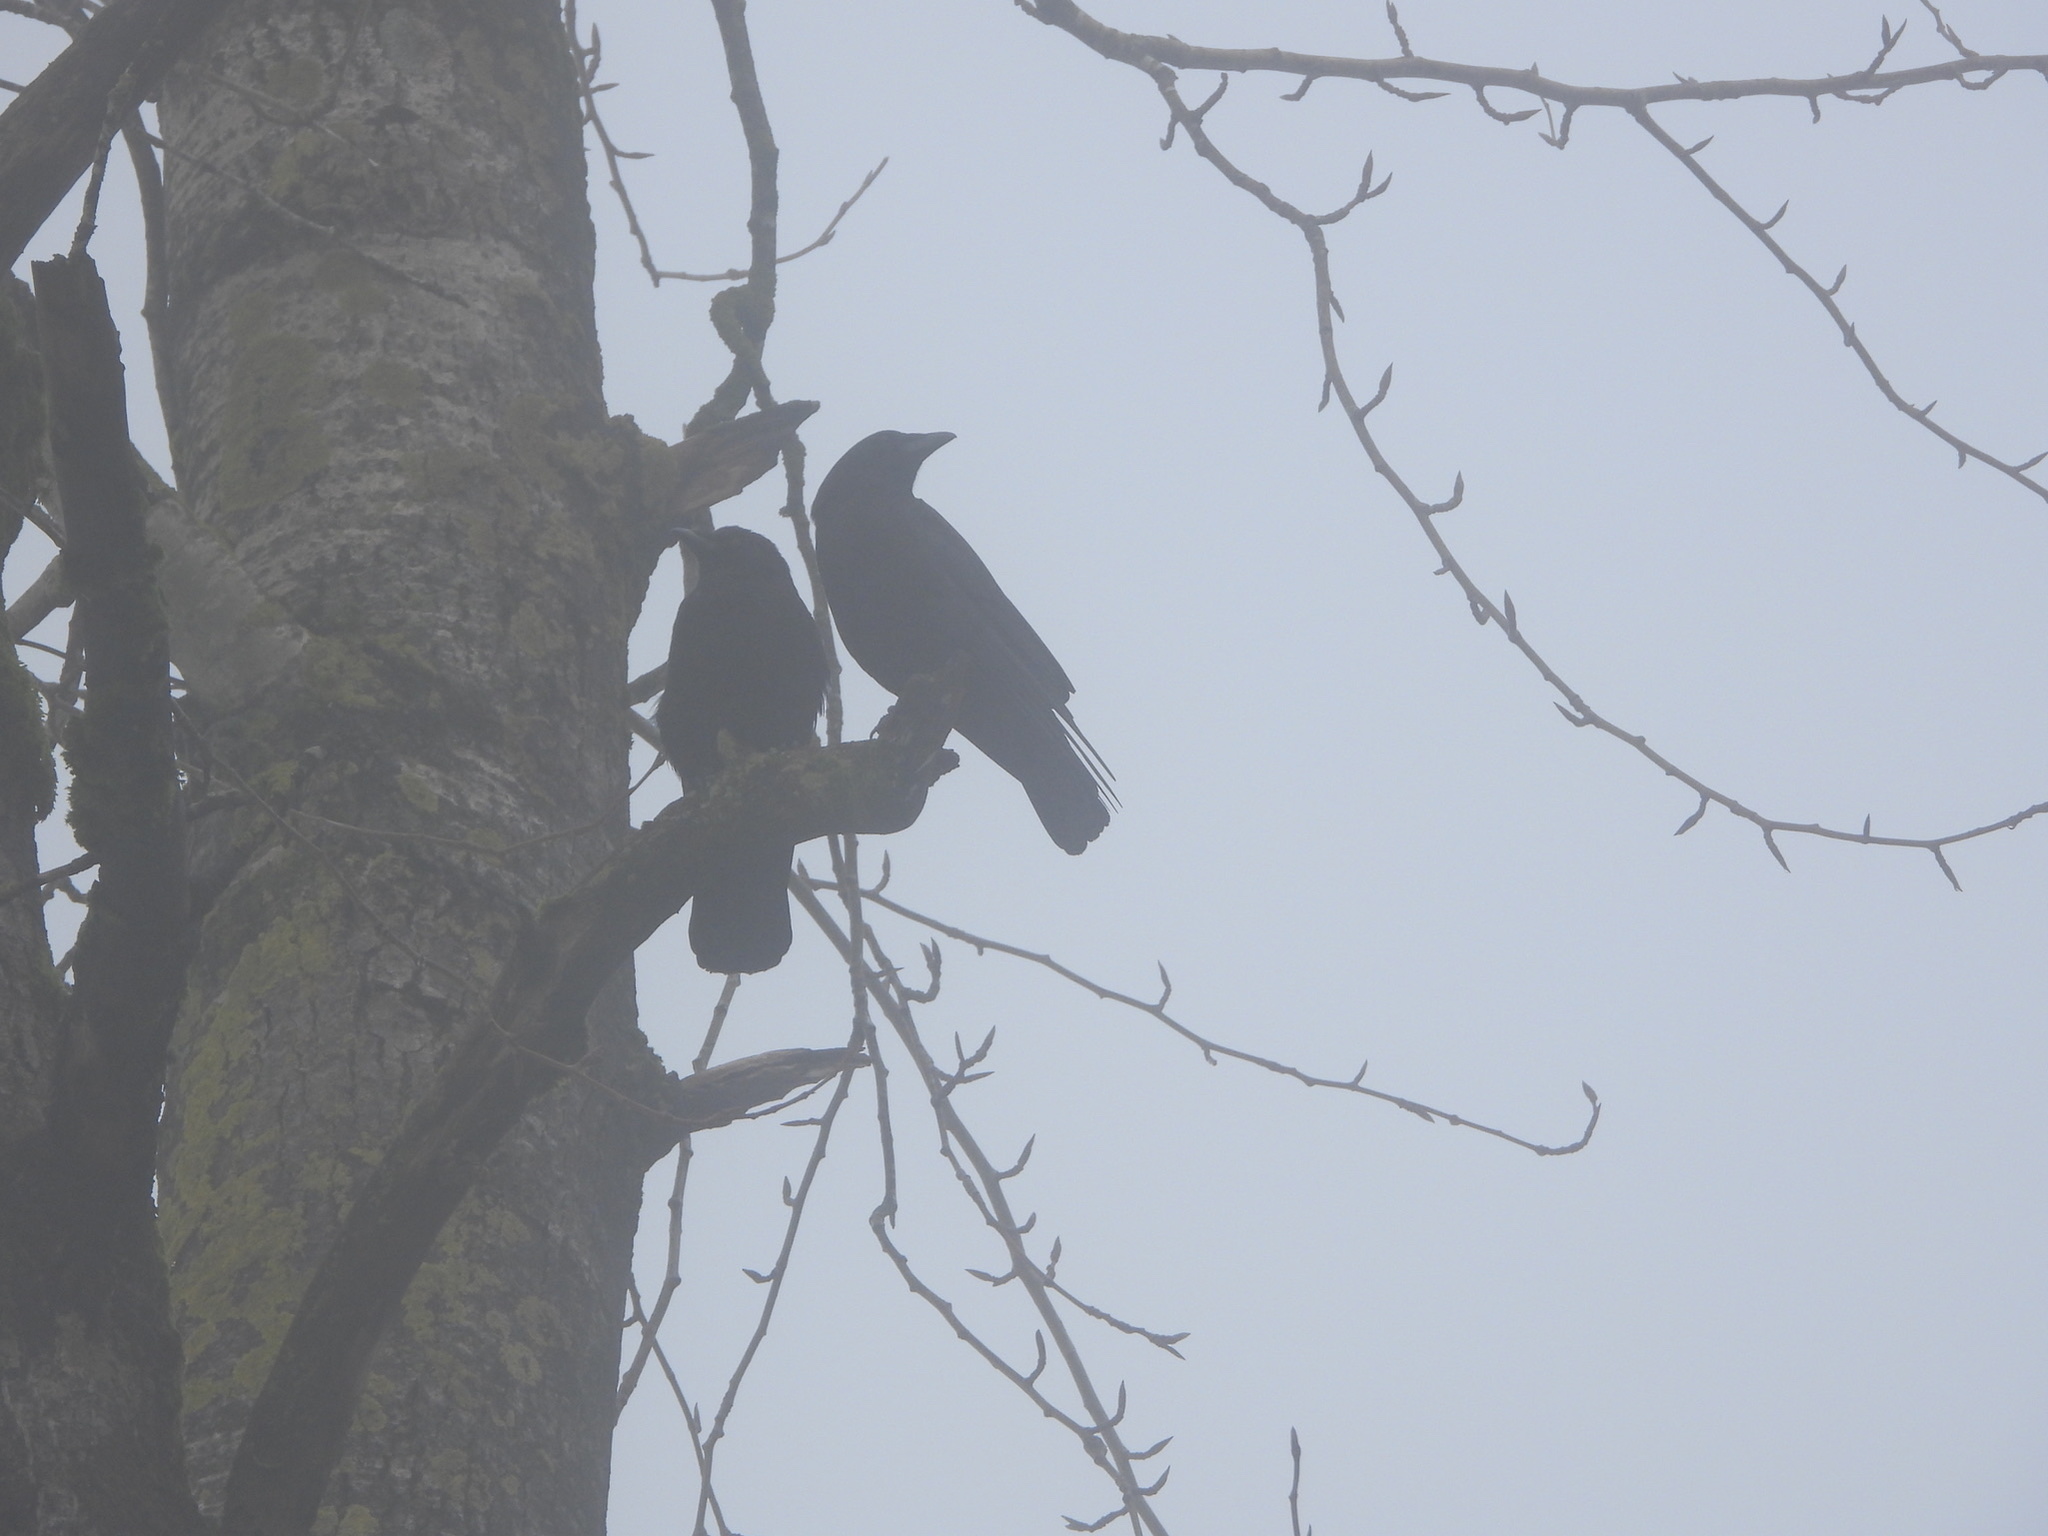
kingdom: Animalia
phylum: Chordata
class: Aves
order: Passeriformes
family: Corvidae
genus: Corvus
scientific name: Corvus brachyrhynchos
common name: American crow
